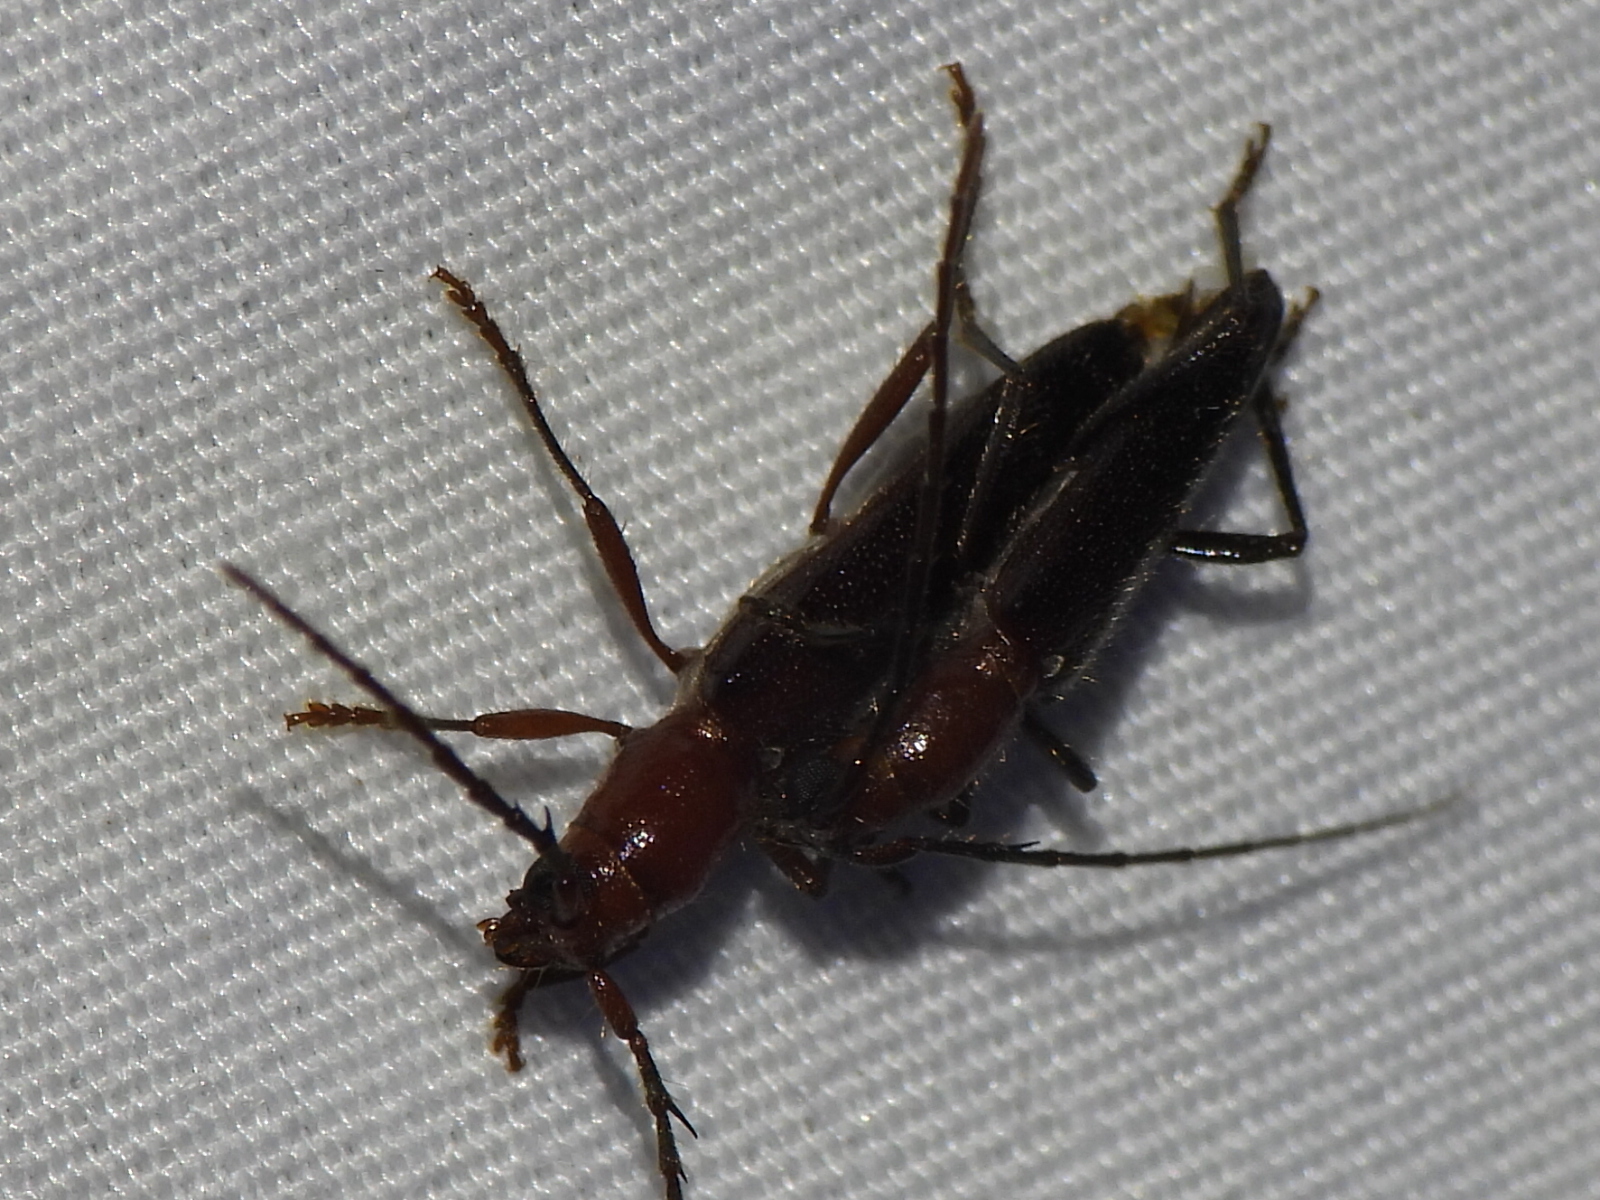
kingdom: Animalia
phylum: Arthropoda
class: Insecta
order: Coleoptera
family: Cerambycidae
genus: Psyrassa
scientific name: Psyrassa brevicornis
